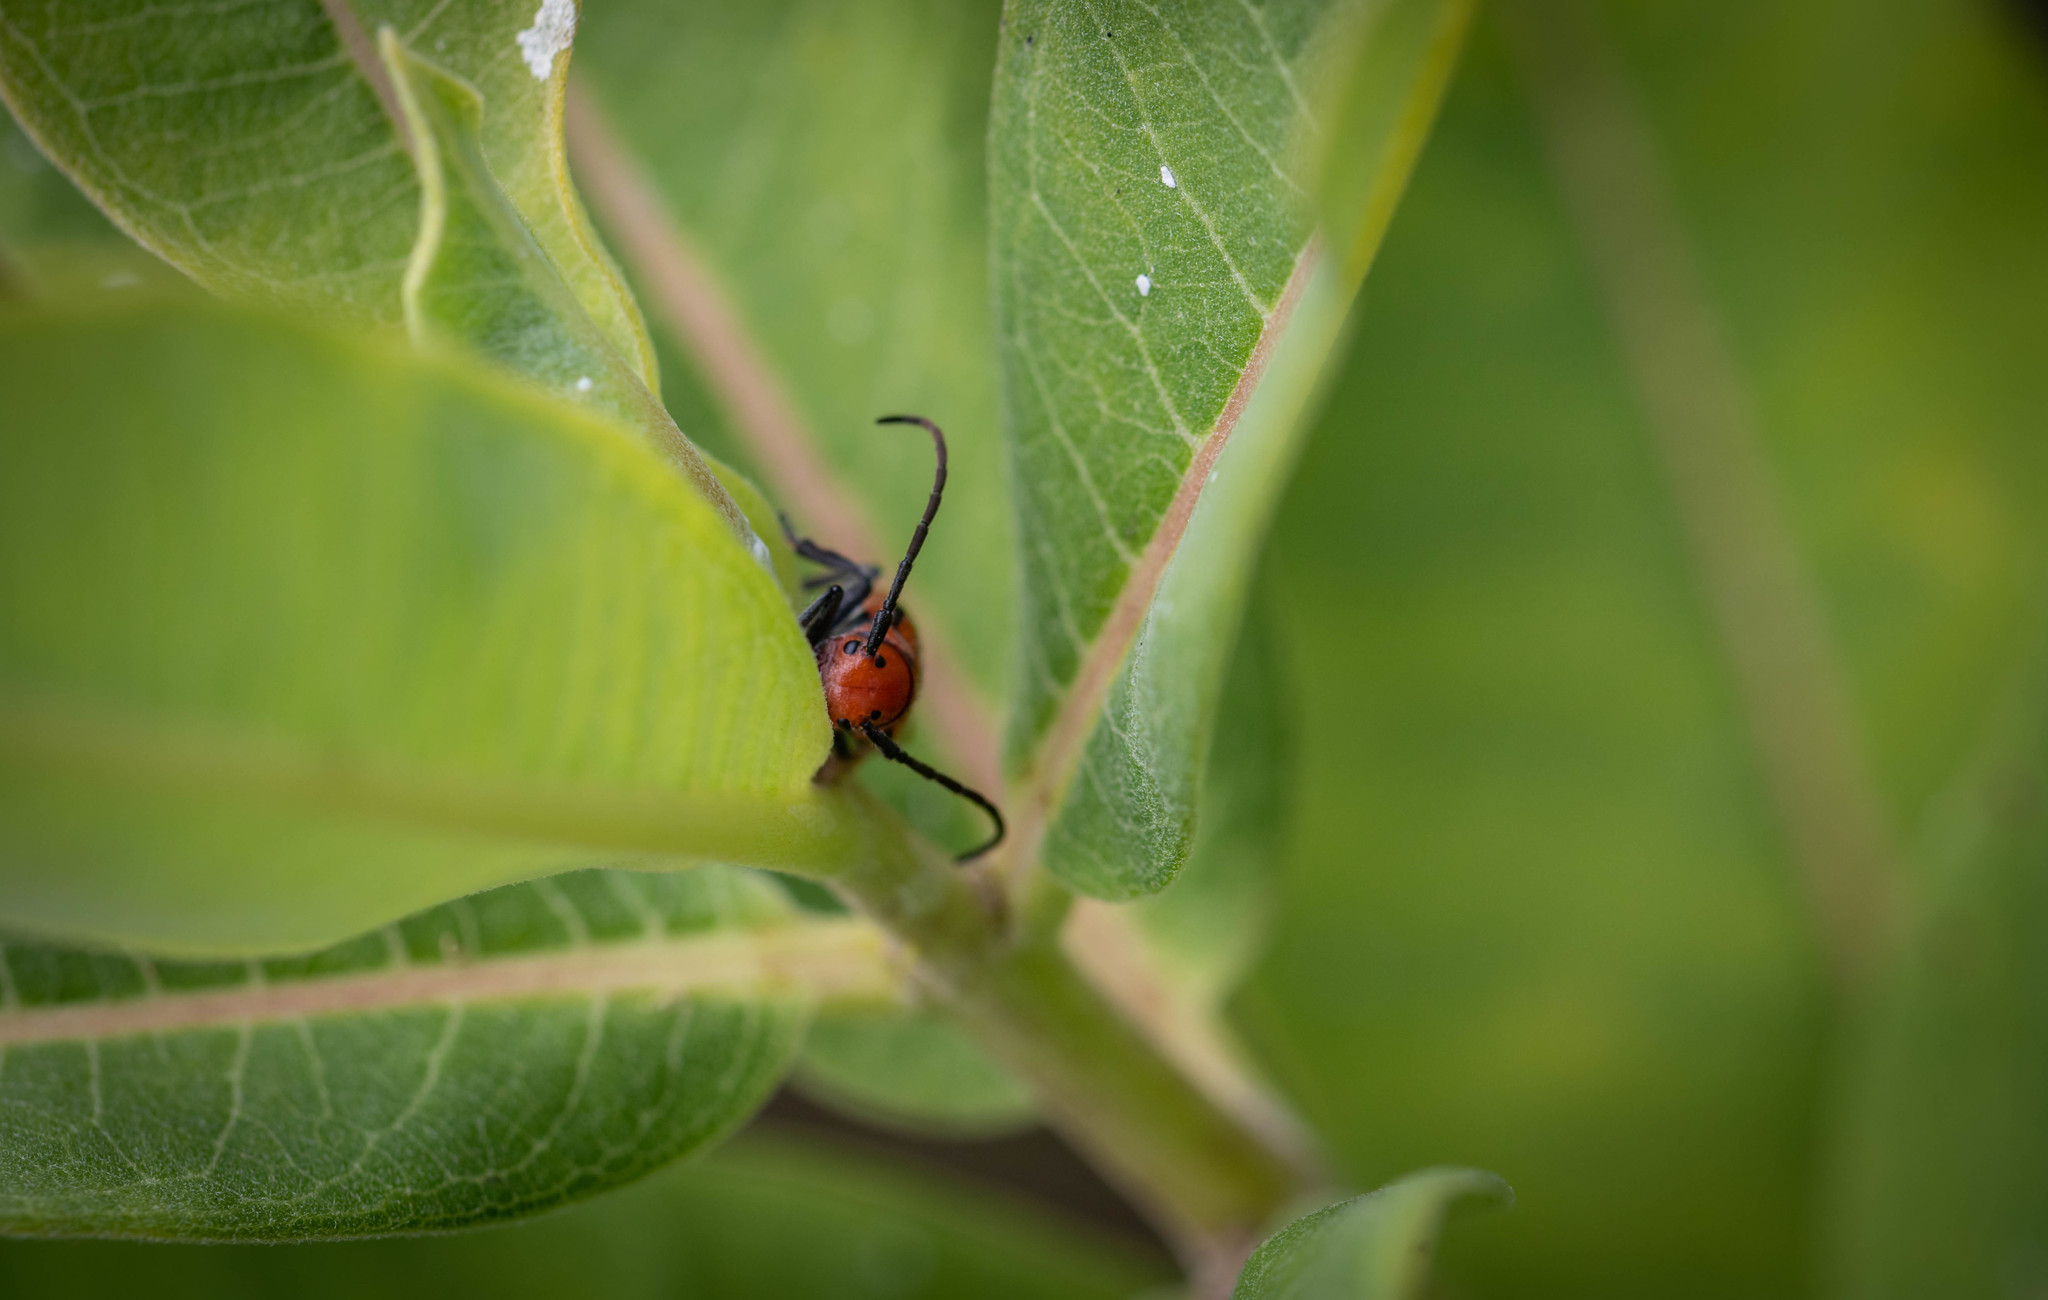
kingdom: Animalia
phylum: Arthropoda
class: Insecta
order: Coleoptera
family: Cerambycidae
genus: Tetraopes
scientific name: Tetraopes tetrophthalmus
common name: Red milkweed beetle
